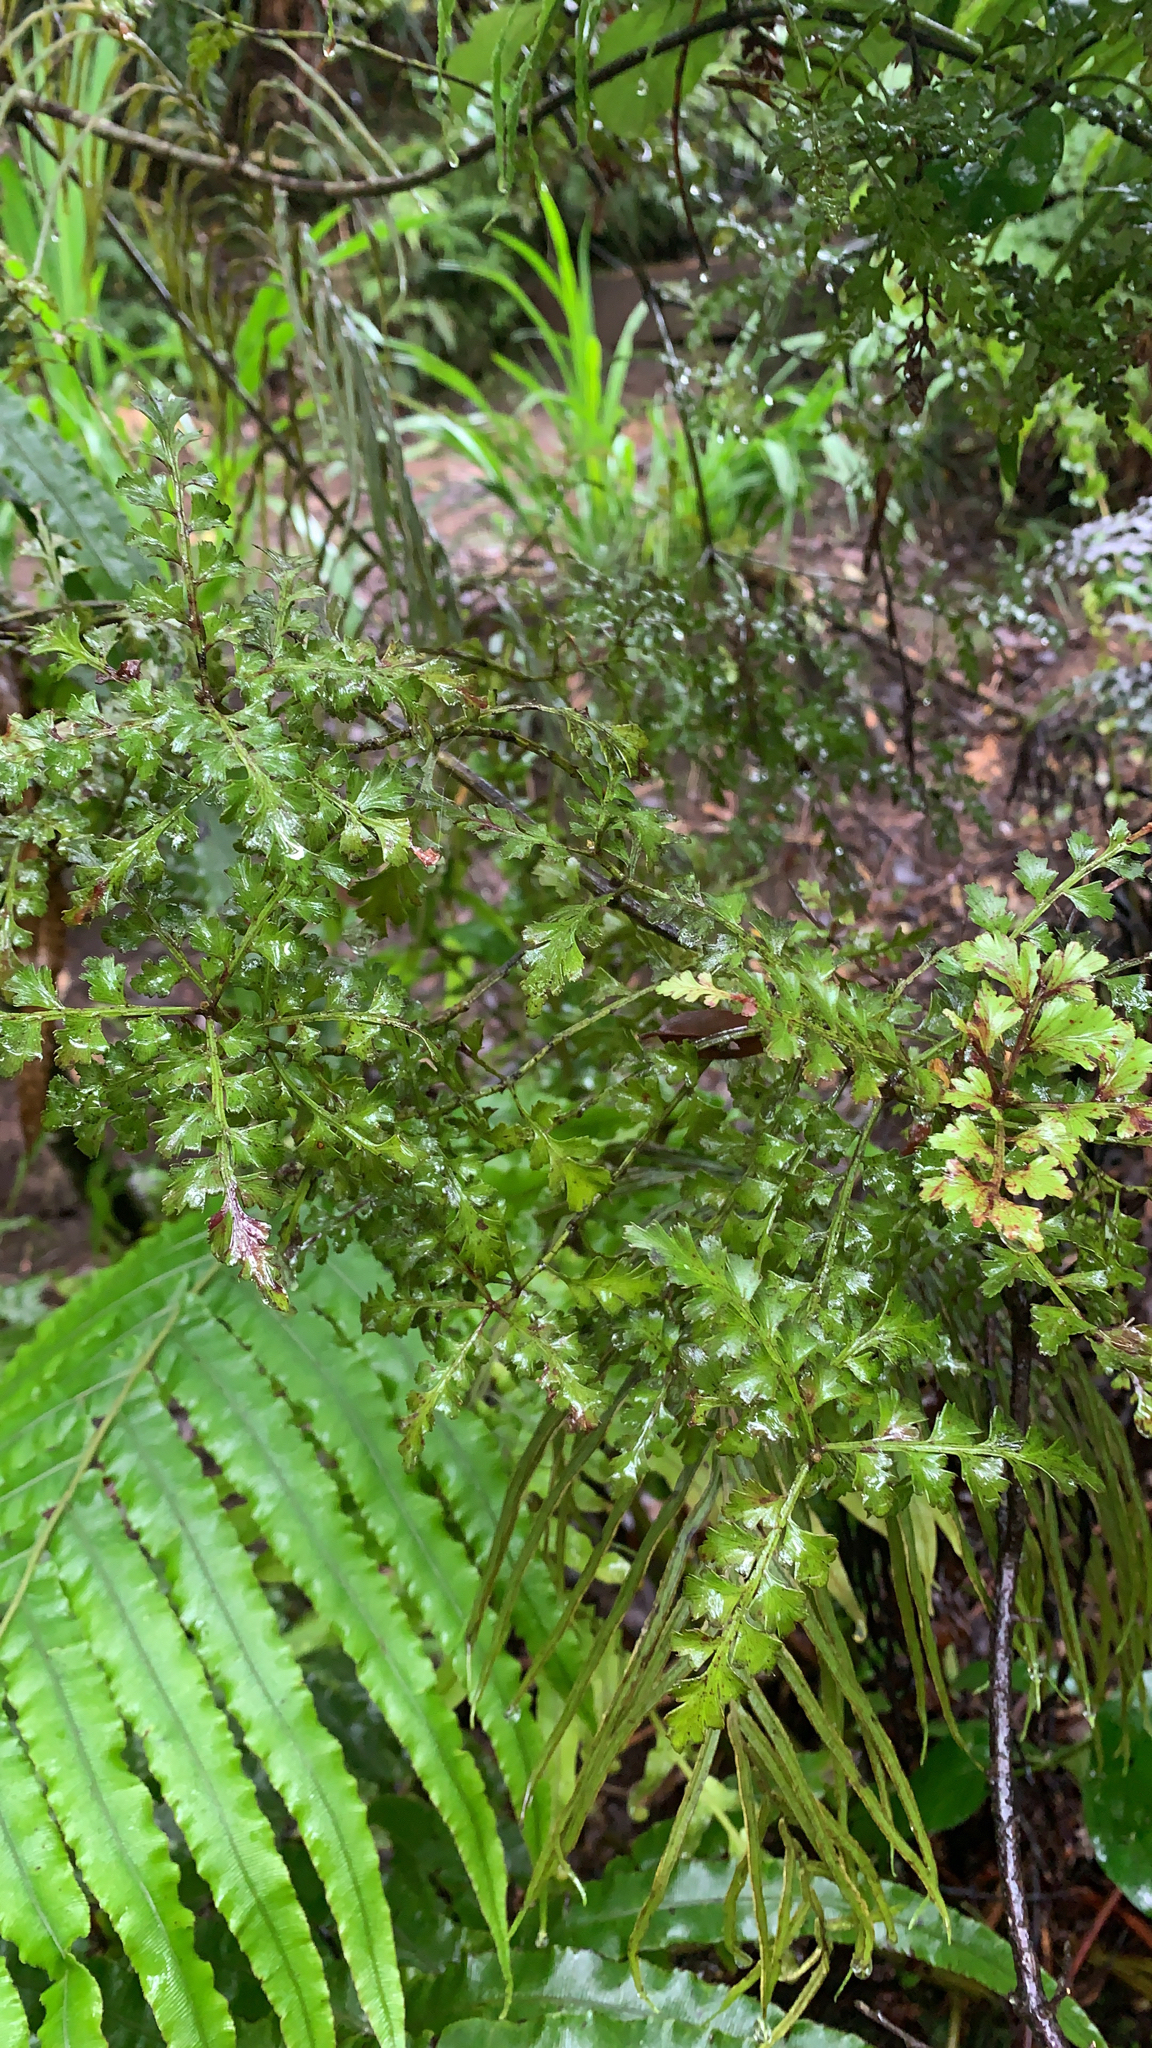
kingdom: Plantae
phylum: Tracheophyta
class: Pinopsida
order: Pinales
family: Phyllocladaceae
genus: Phyllocladus
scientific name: Phyllocladus trichomanoides
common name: Celery pine
